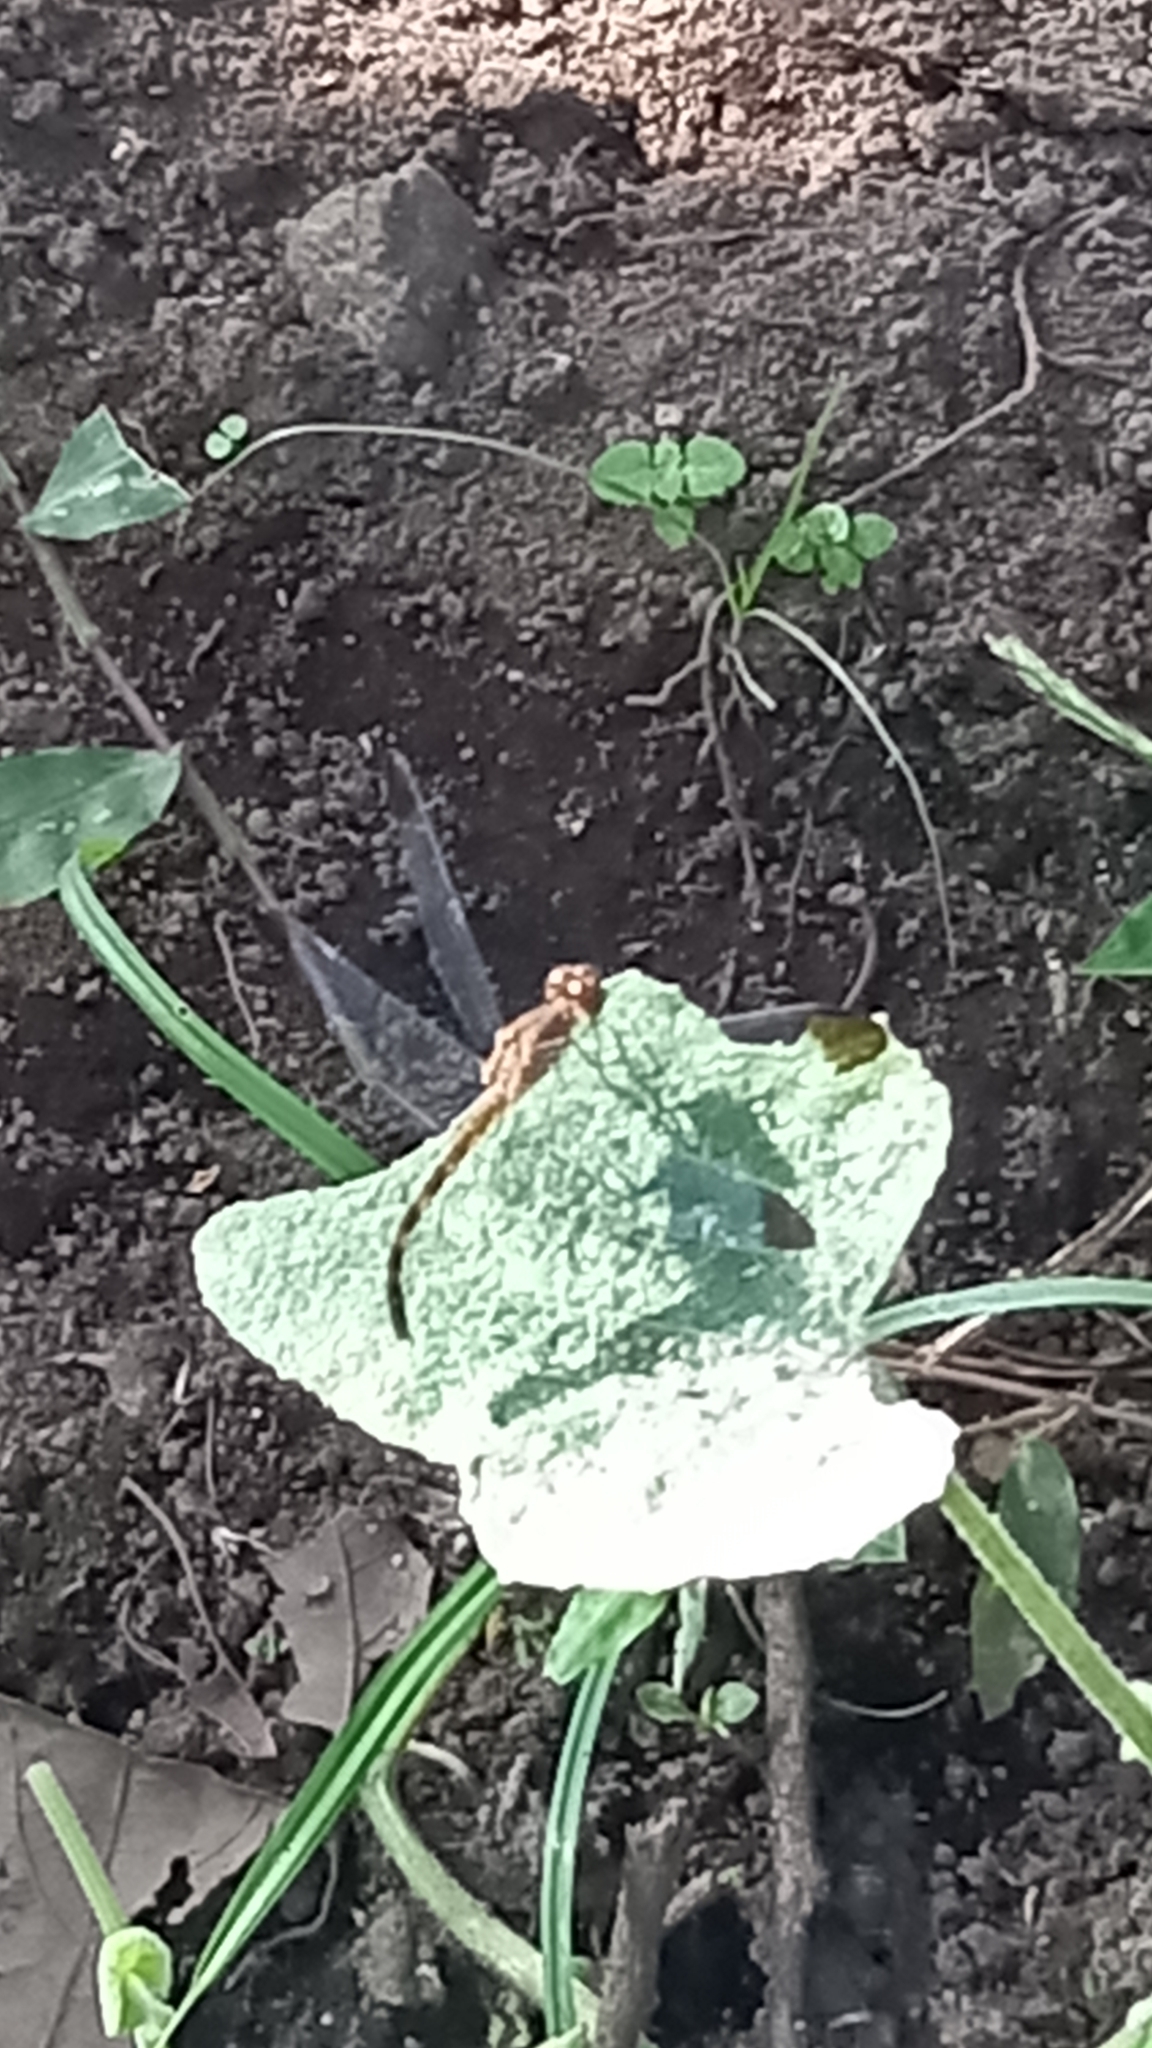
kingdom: Animalia
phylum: Arthropoda
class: Insecta
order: Odonata
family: Libellulidae
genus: Uracis
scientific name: Uracis imbuta
